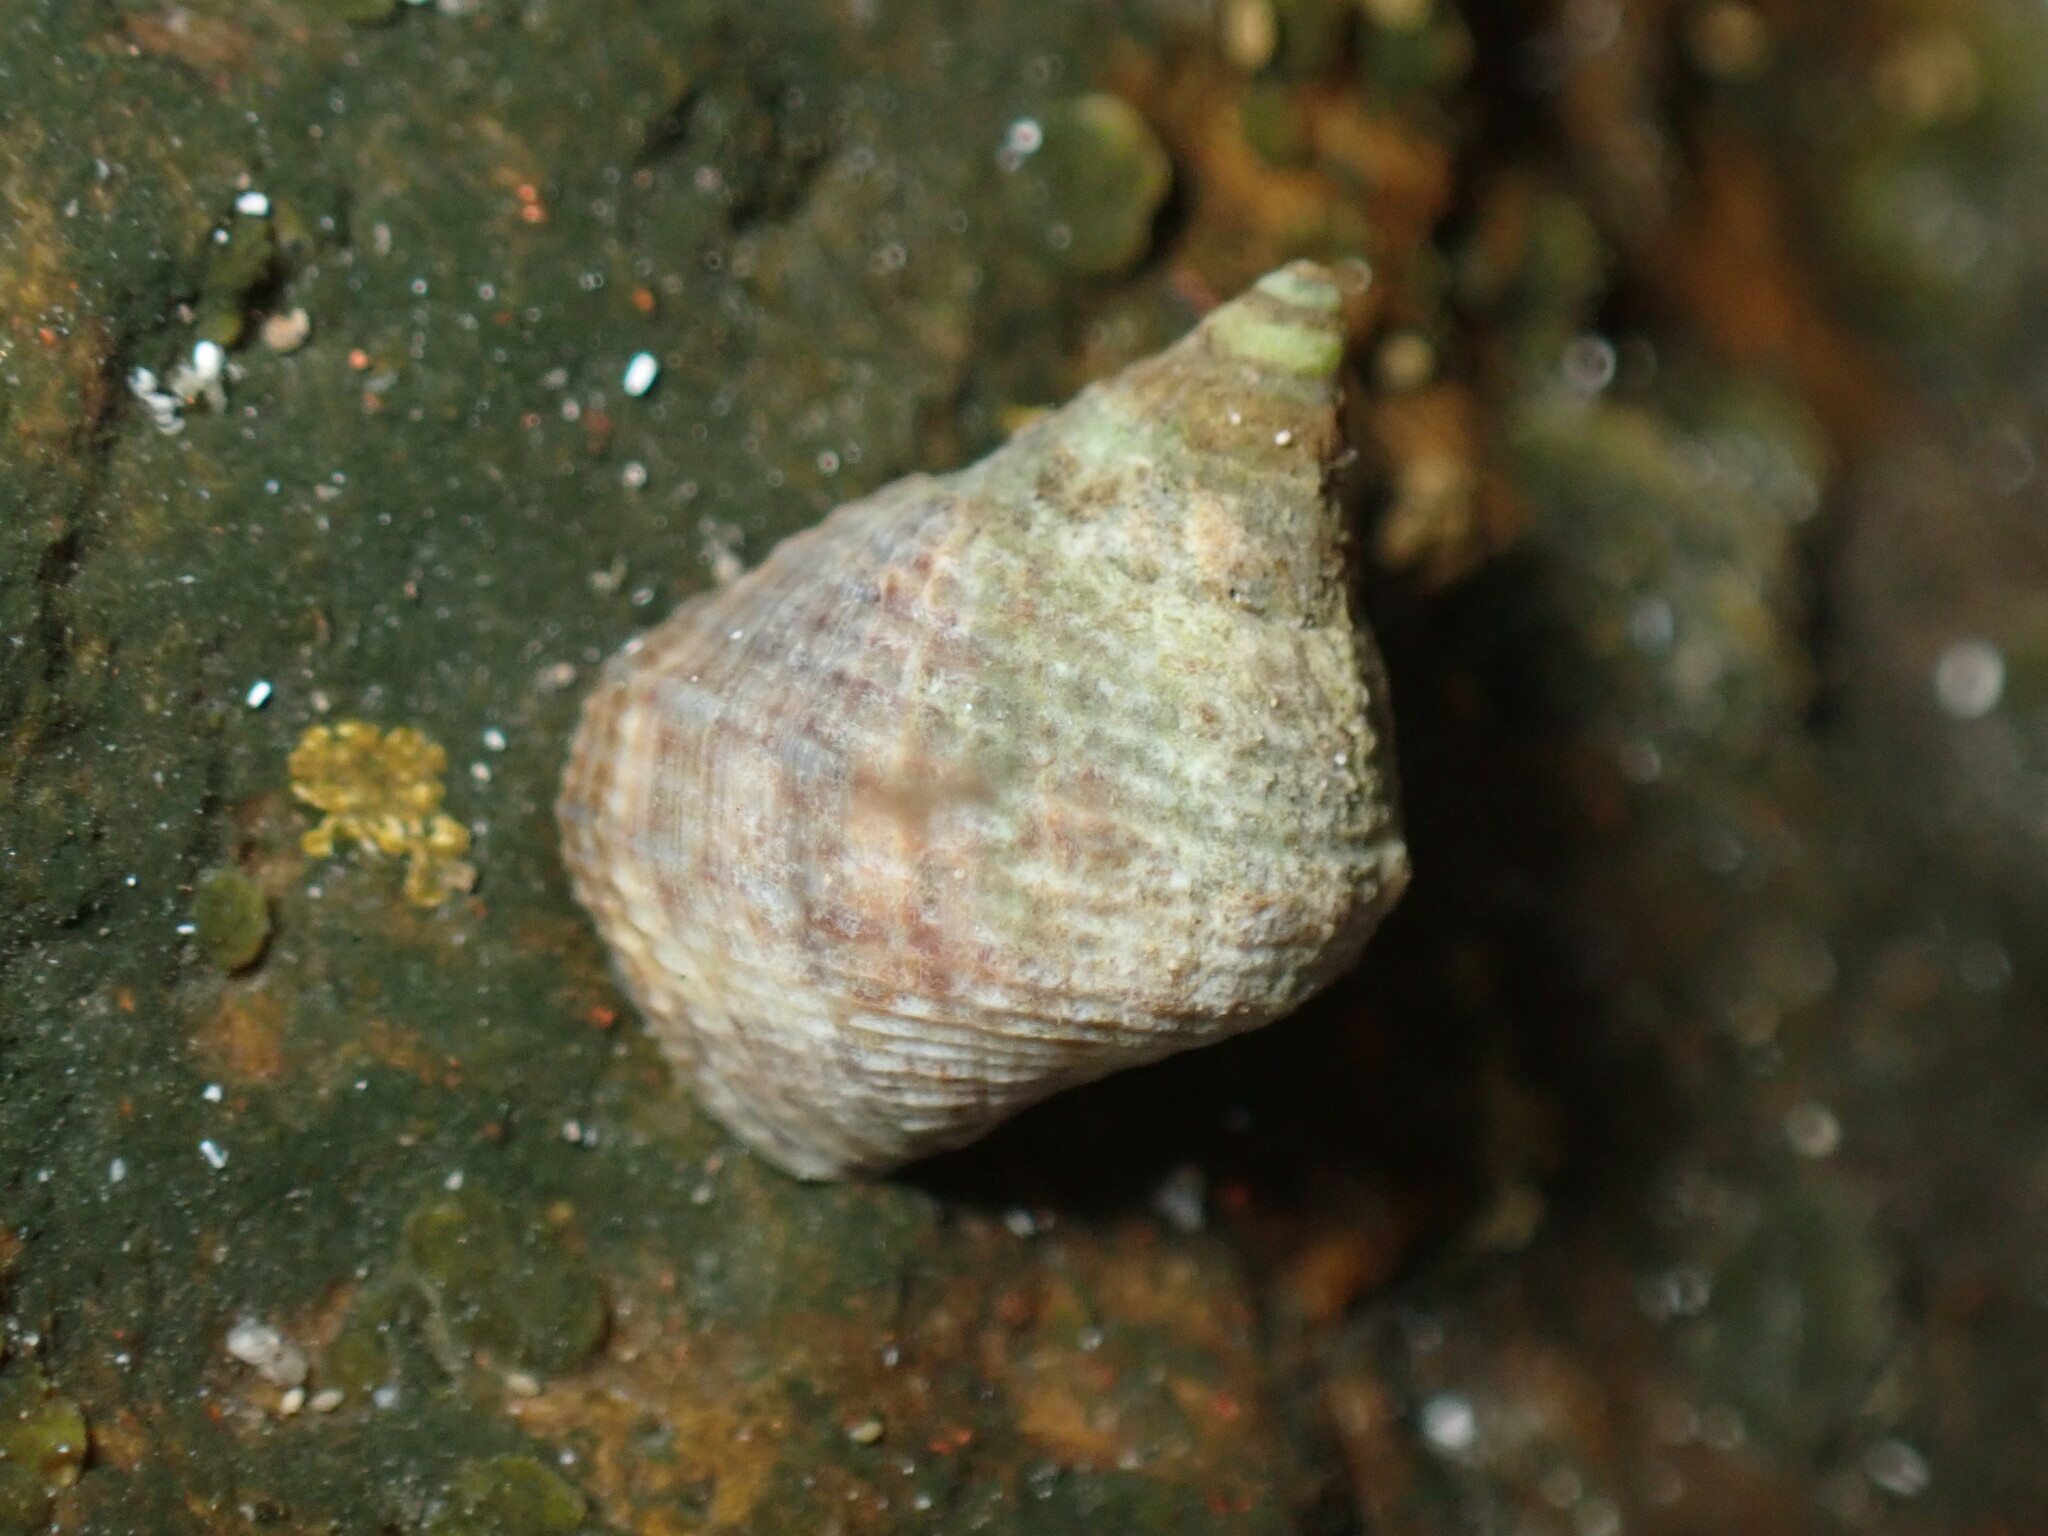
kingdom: Animalia
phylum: Mollusca
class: Gastropoda
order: Littorinimorpha
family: Littorinidae
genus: Tectarius
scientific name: Tectarius striatus
